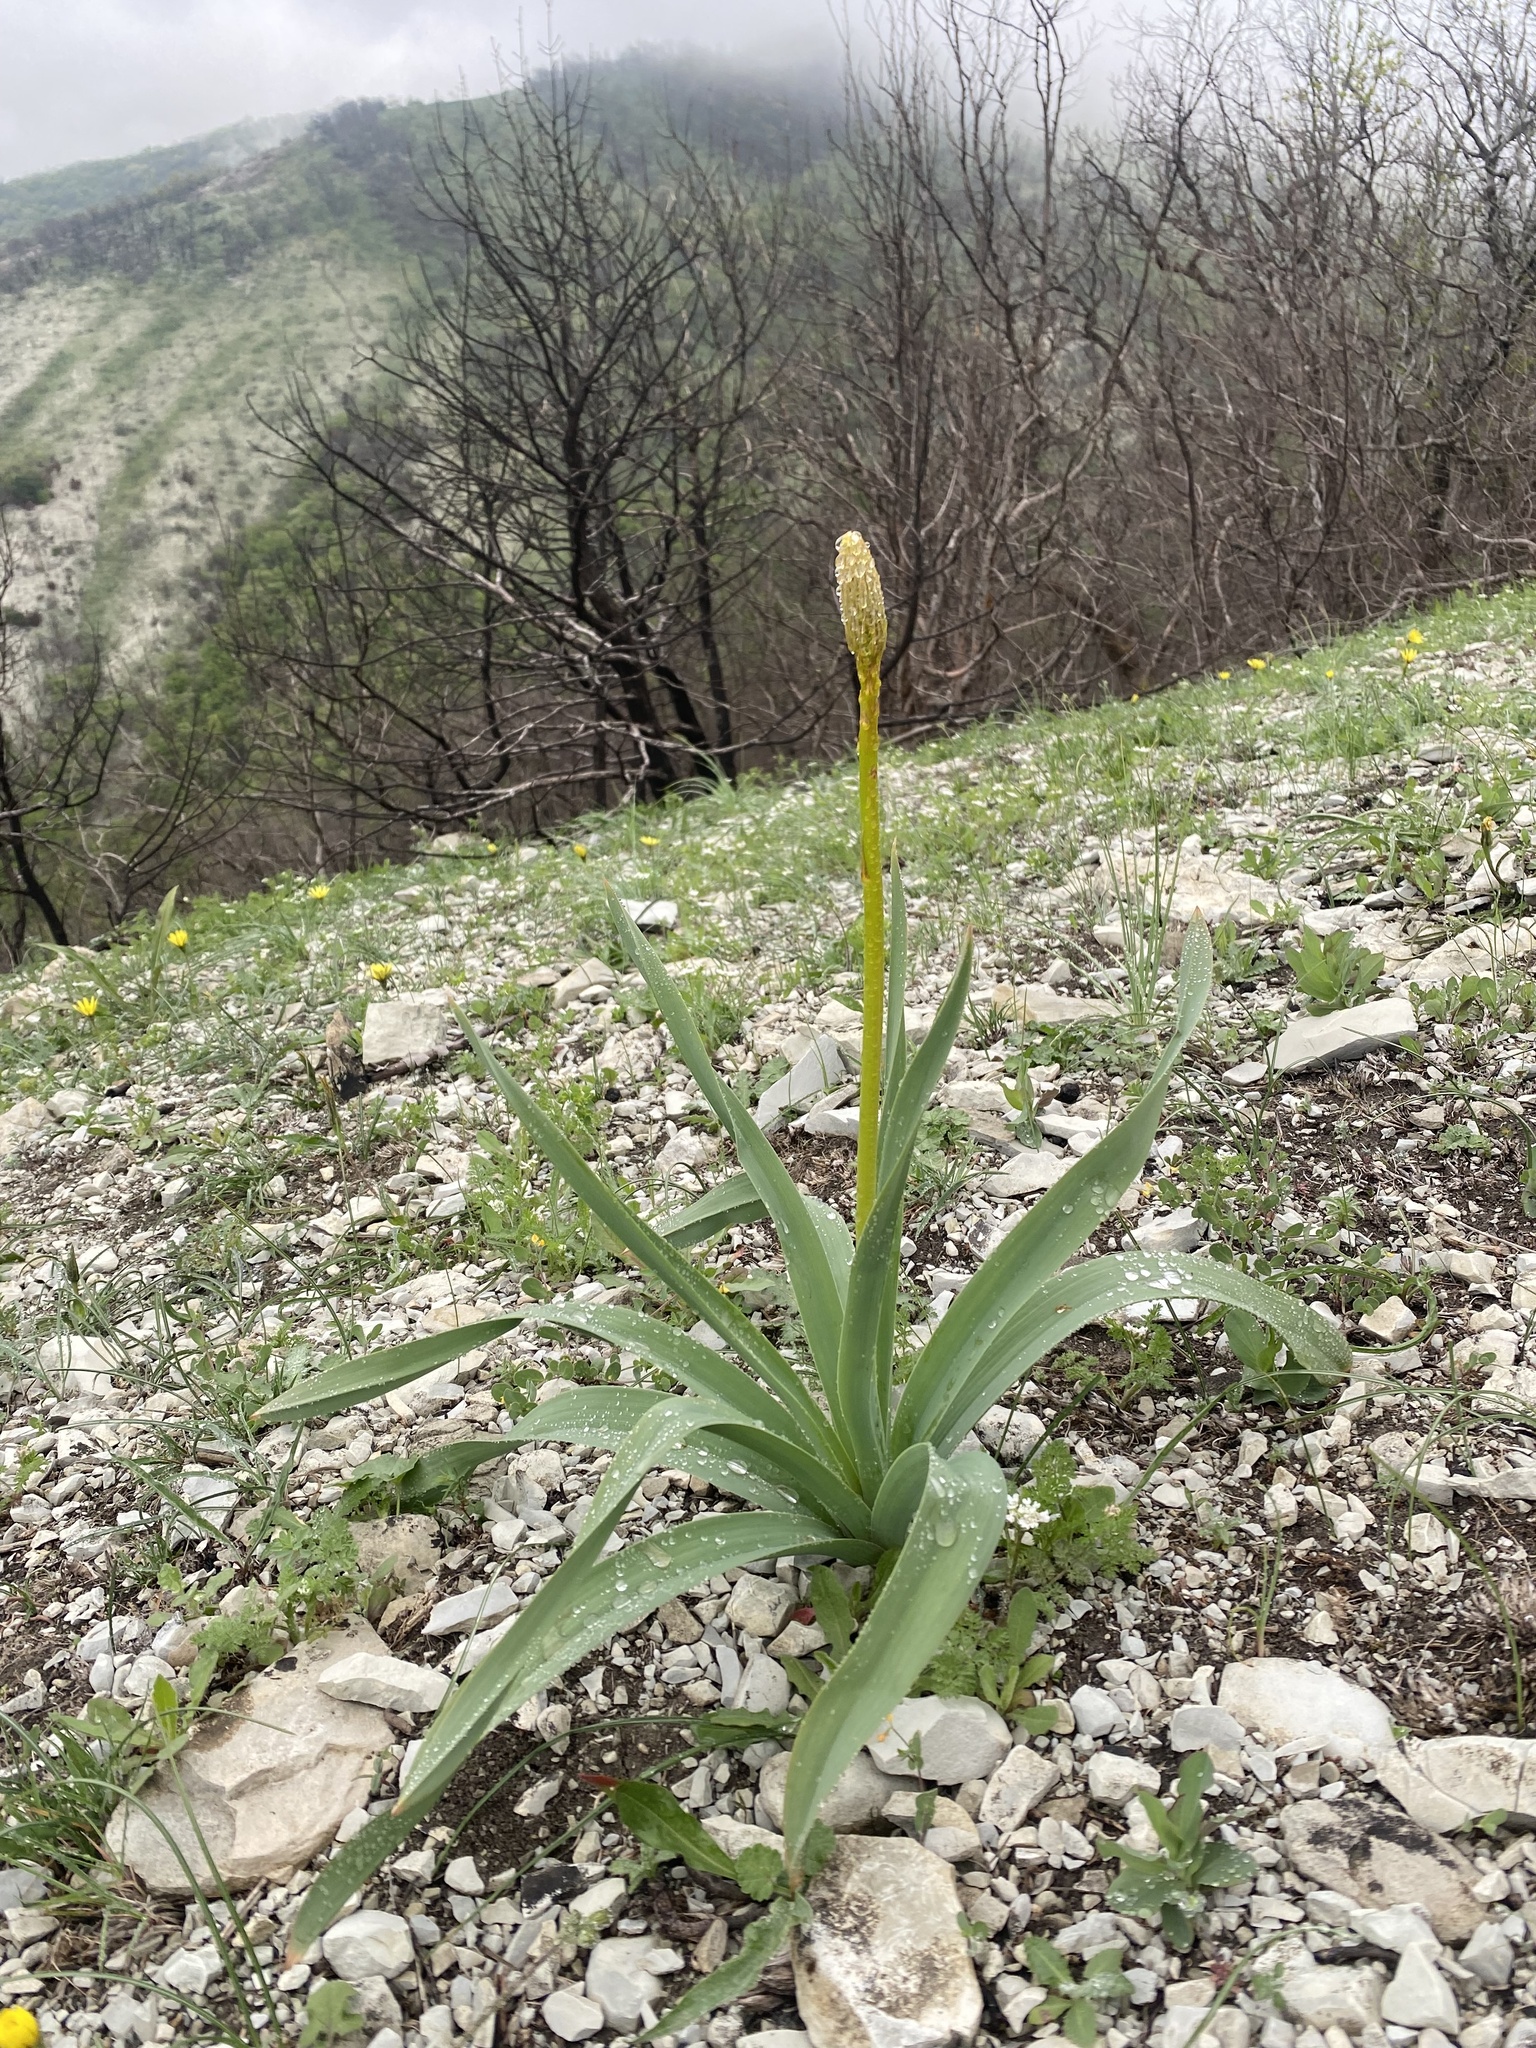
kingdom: Plantae
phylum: Tracheophyta
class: Liliopsida
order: Asparagales
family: Asphodelaceae
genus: Eremurus
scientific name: Eremurus spectabilis
